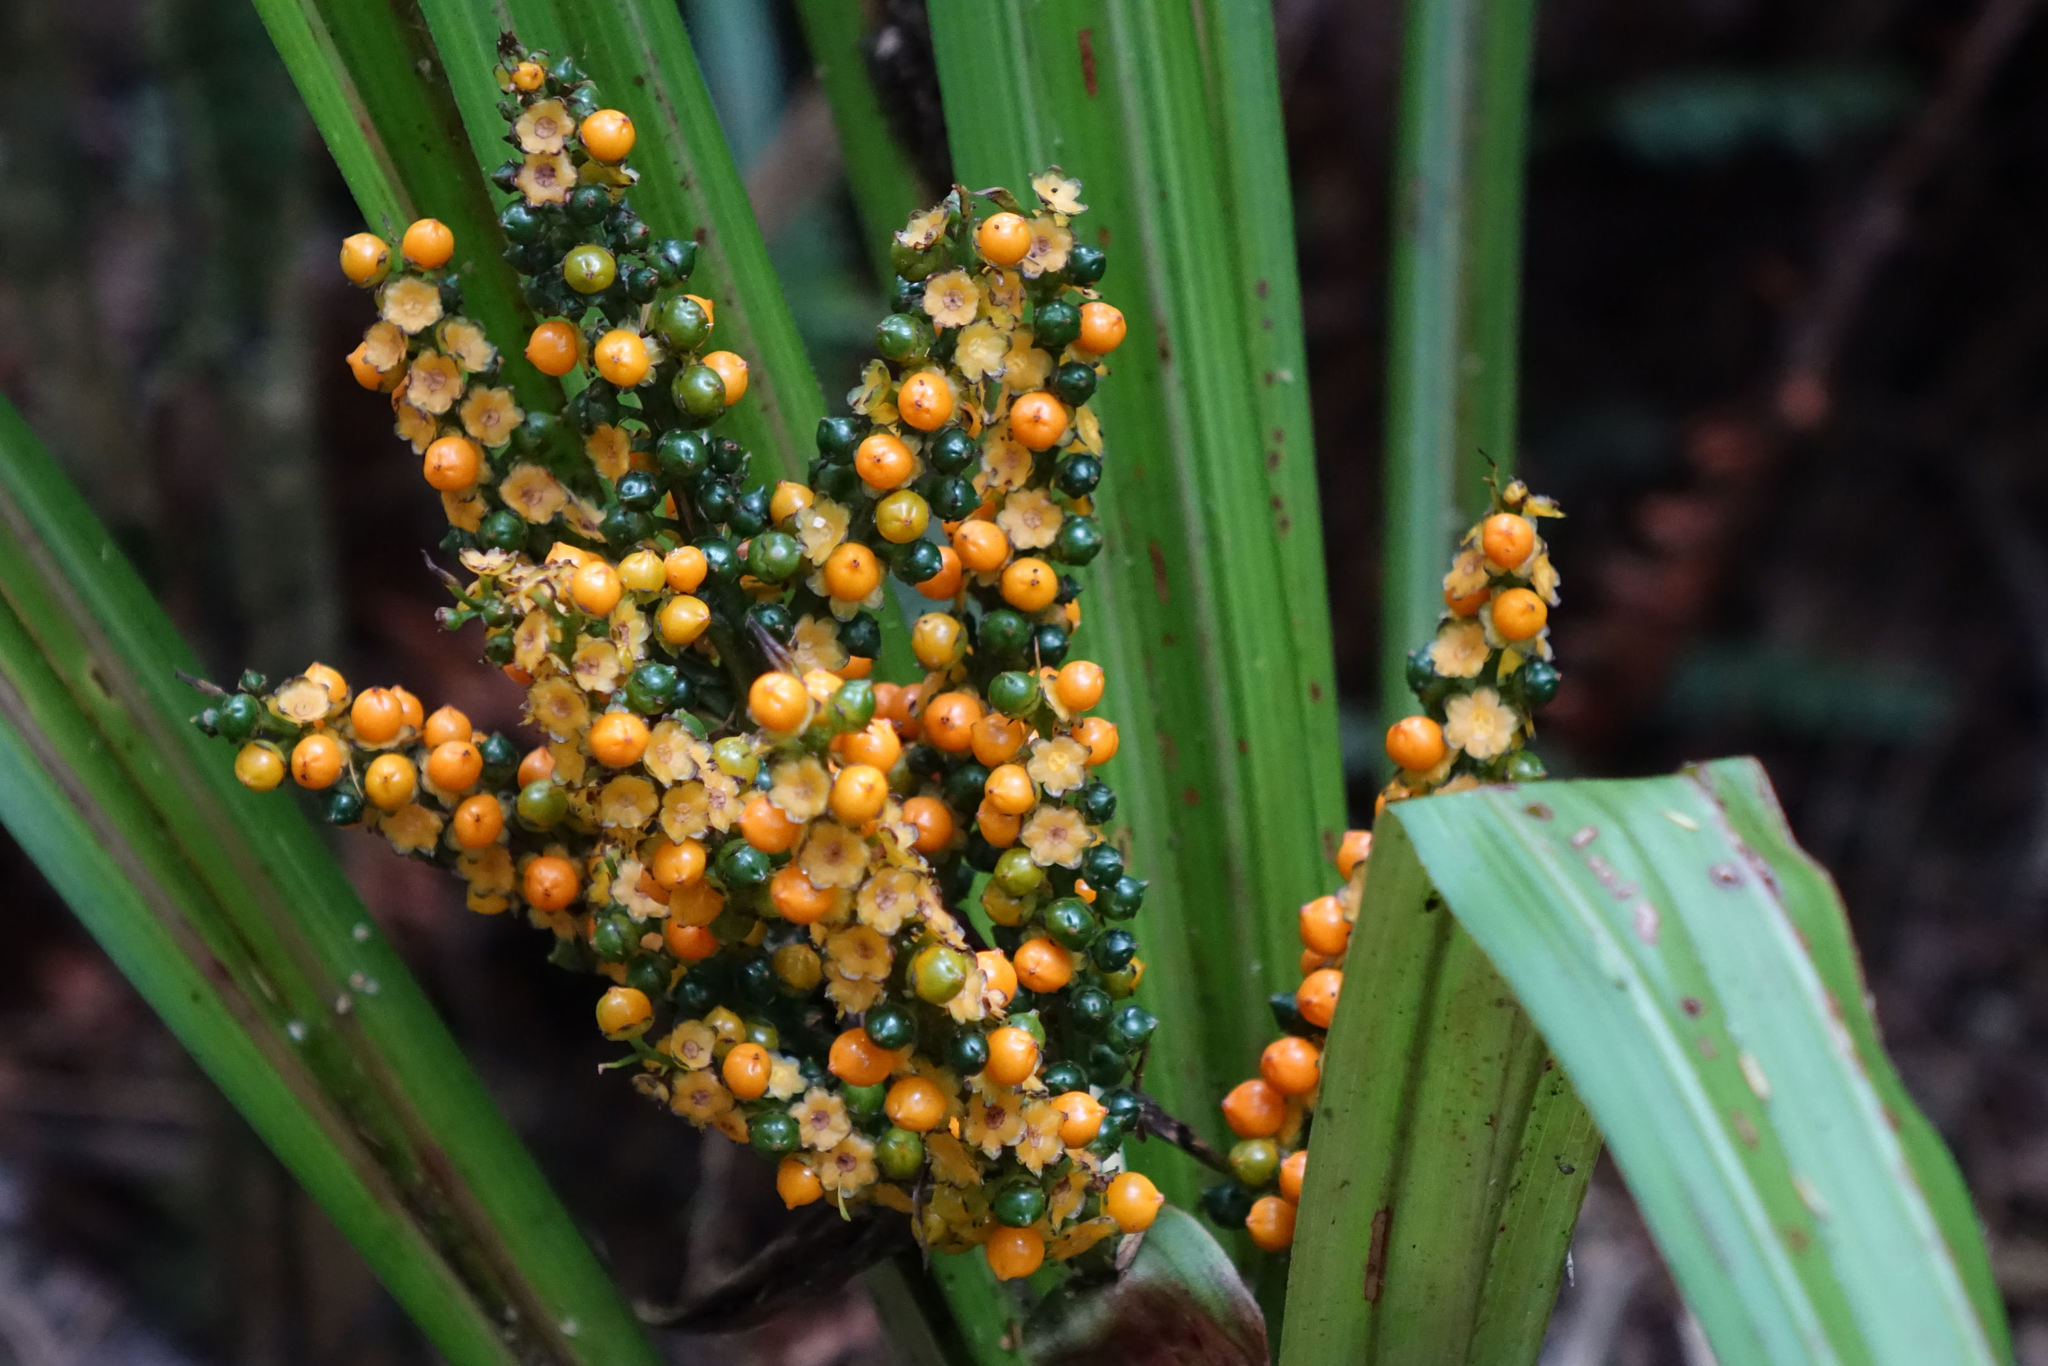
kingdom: Plantae
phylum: Tracheophyta
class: Liliopsida
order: Asparagales
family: Asteliaceae
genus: Astelia
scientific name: Astelia fragrans
